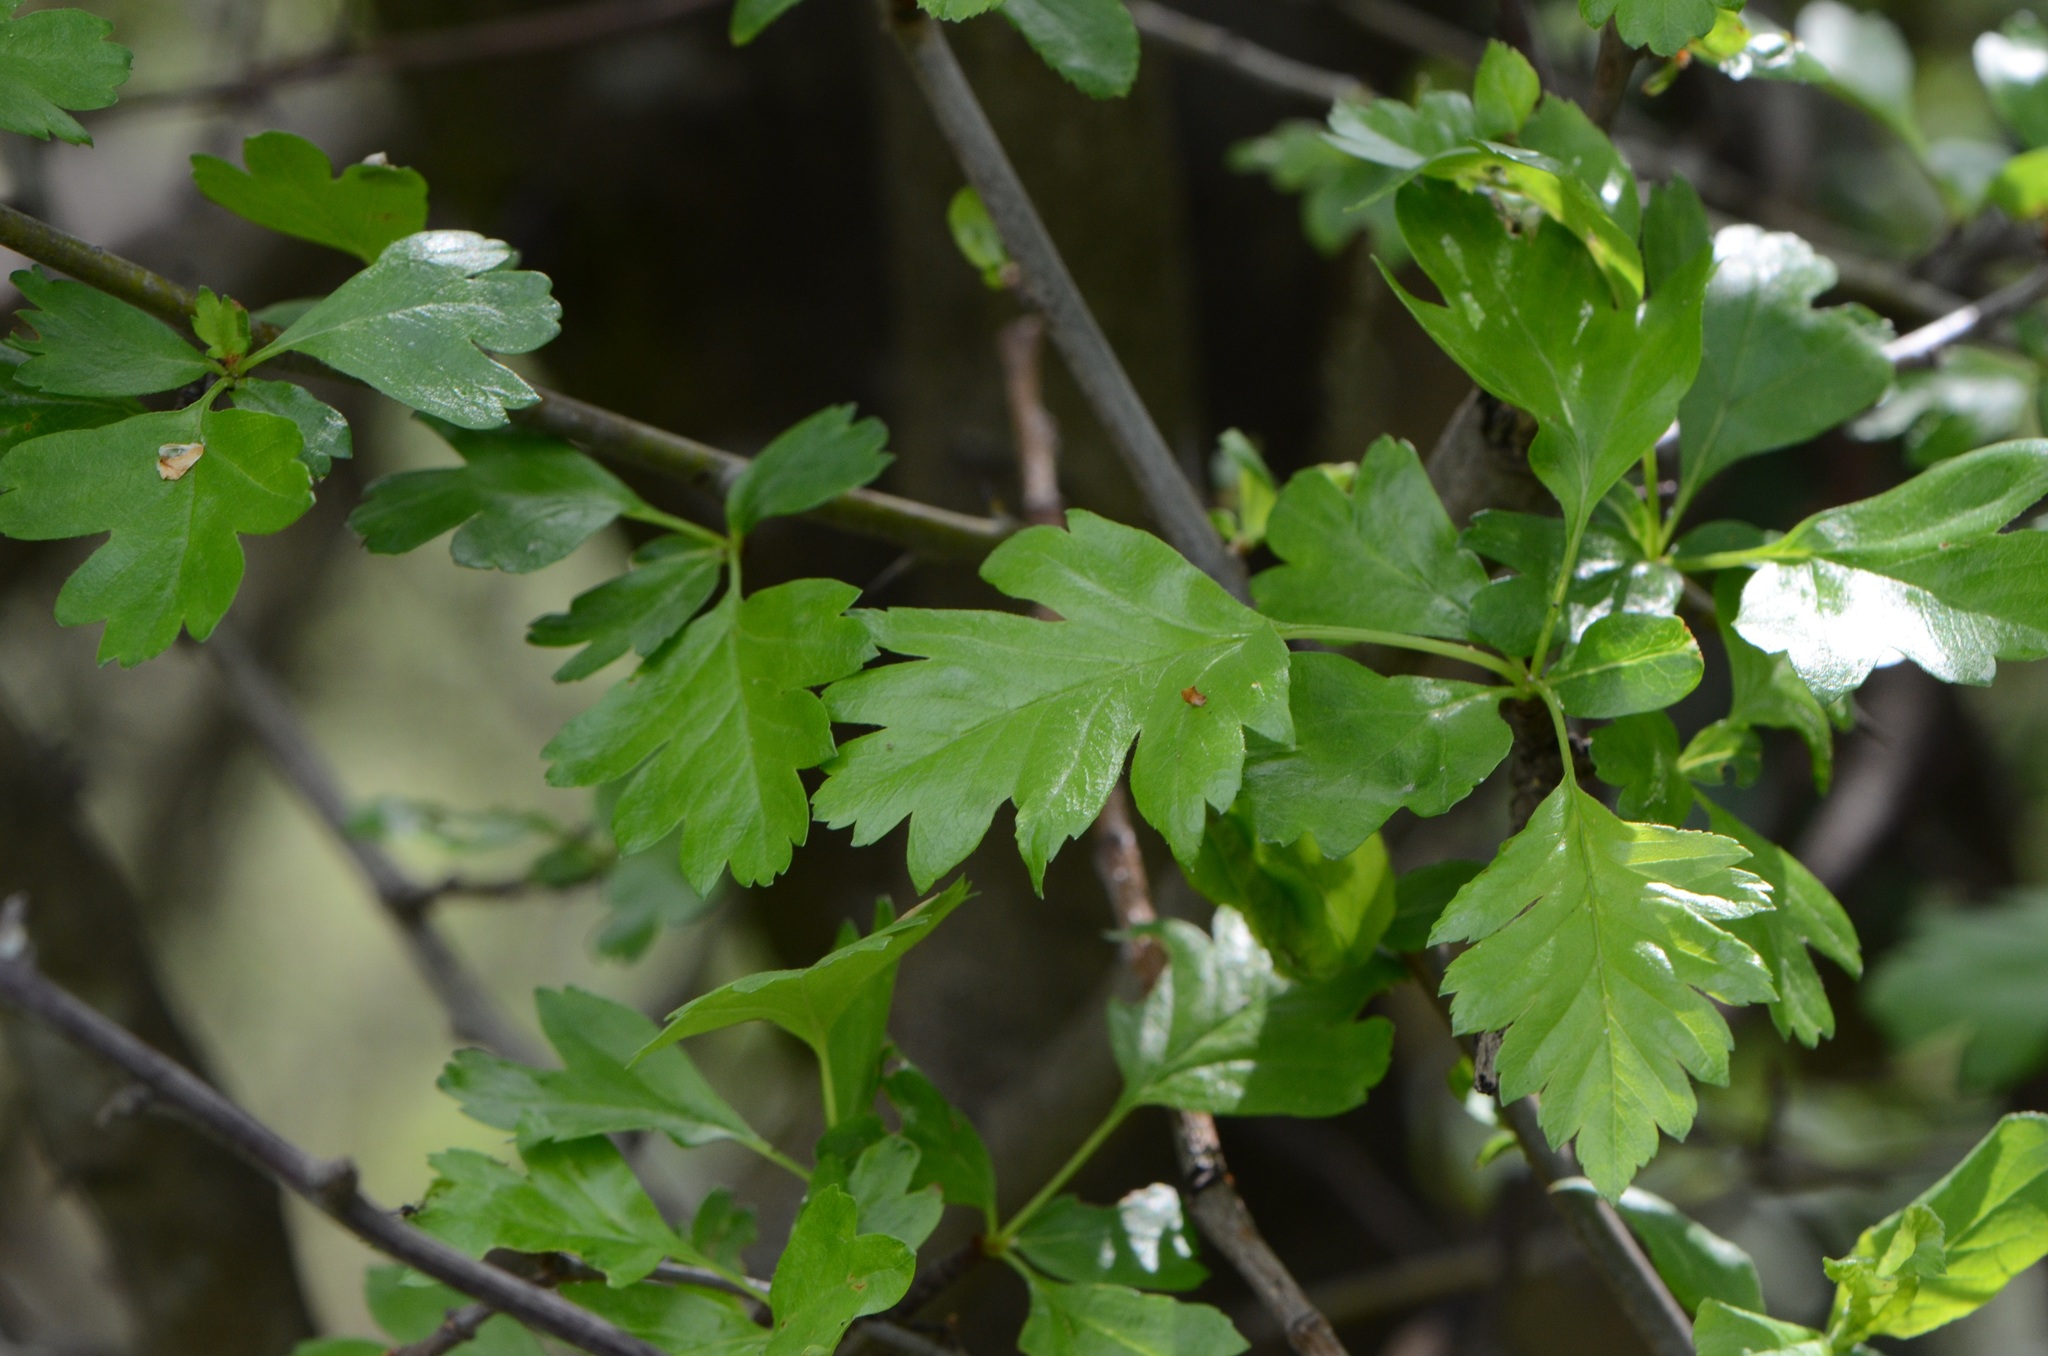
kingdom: Plantae
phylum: Tracheophyta
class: Magnoliopsida
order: Rosales
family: Rosaceae
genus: Crataegus
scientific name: Crataegus monogyna
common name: Hawthorn
